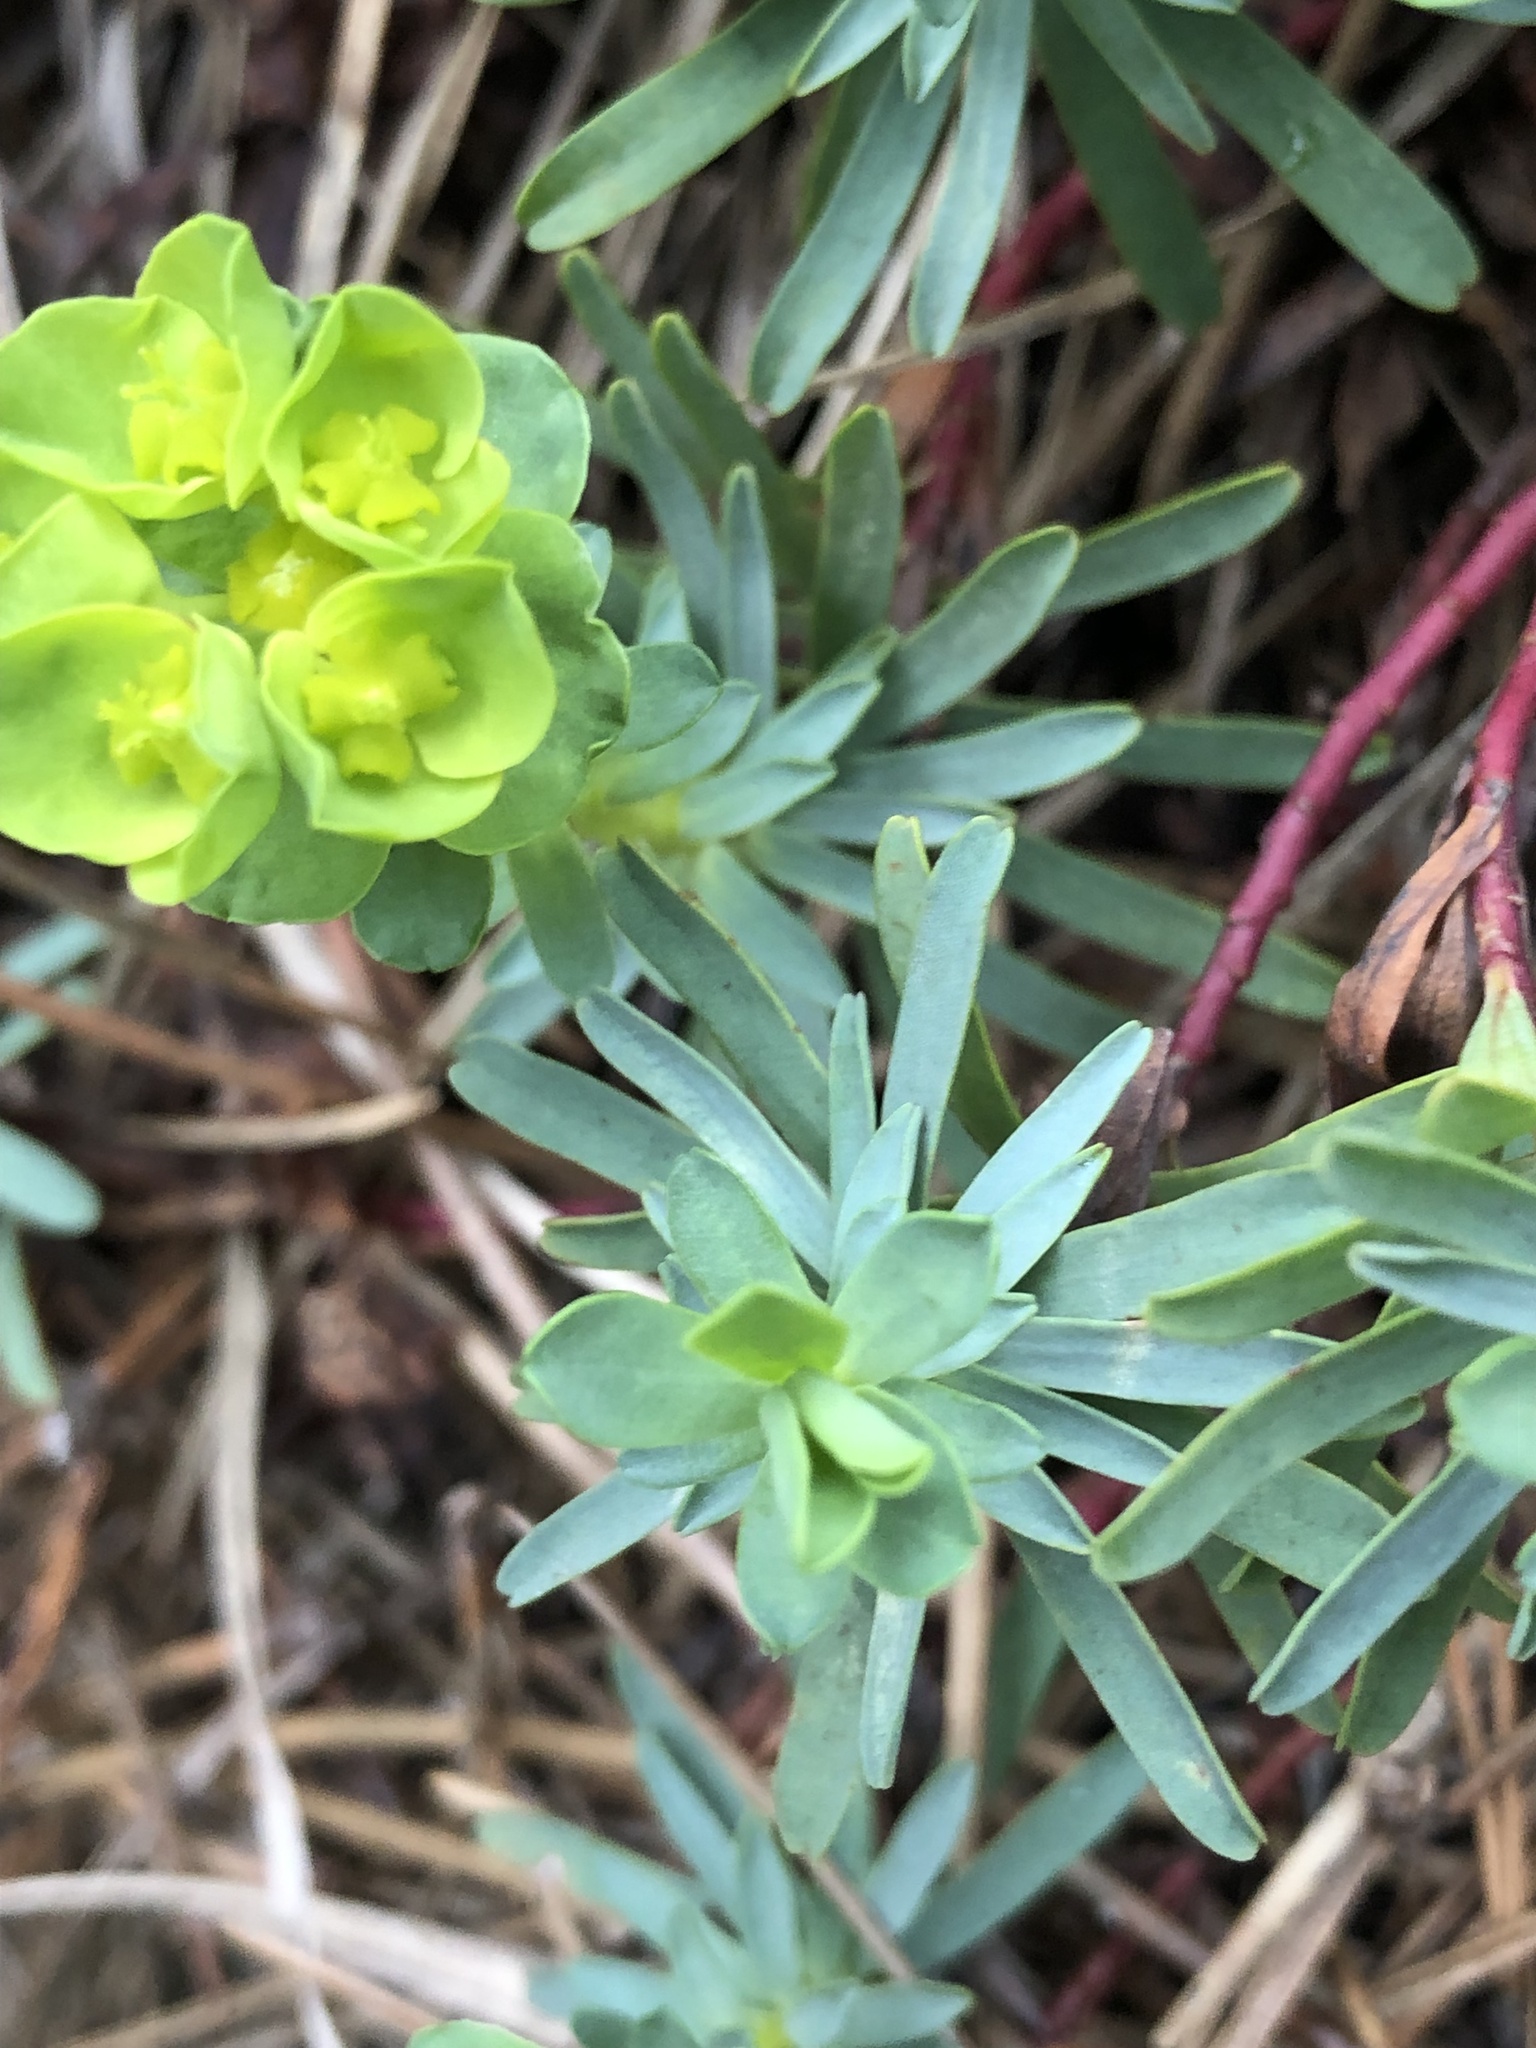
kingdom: Plantae
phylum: Tracheophyta
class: Magnoliopsida
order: Malpighiales
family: Euphorbiaceae
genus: Euphorbia
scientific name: Euphorbia saxatilis
